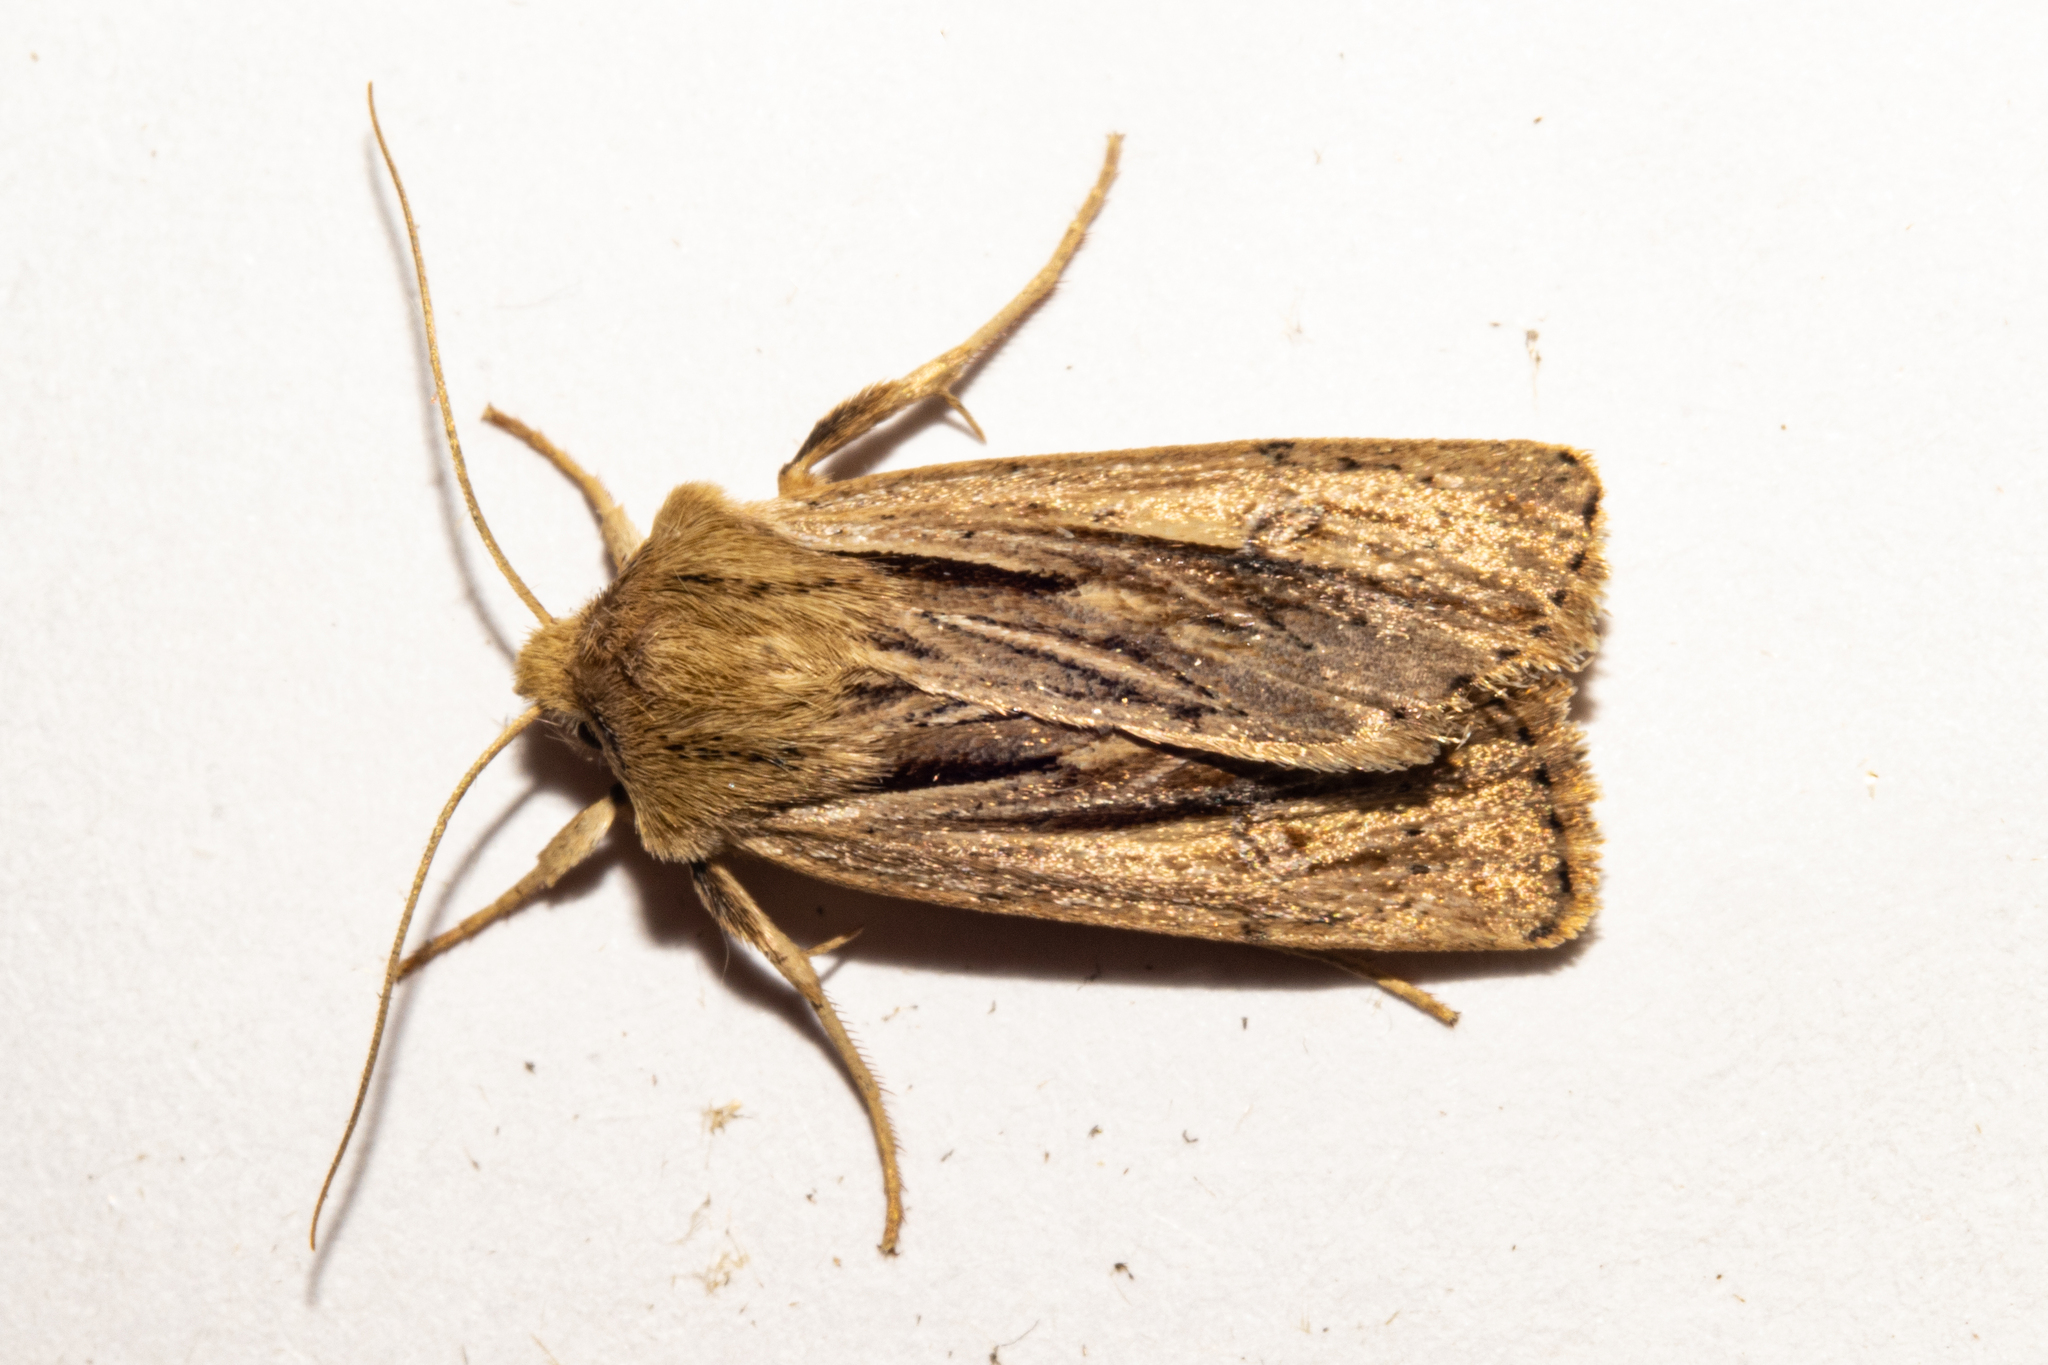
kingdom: Animalia
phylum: Arthropoda
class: Insecta
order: Lepidoptera
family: Noctuidae
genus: Ichneutica
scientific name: Ichneutica propria
